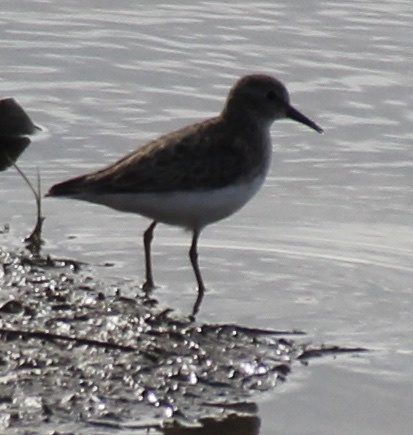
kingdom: Animalia
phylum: Chordata
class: Aves
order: Charadriiformes
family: Scolopacidae
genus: Calidris
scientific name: Calidris minutilla
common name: Least sandpiper
